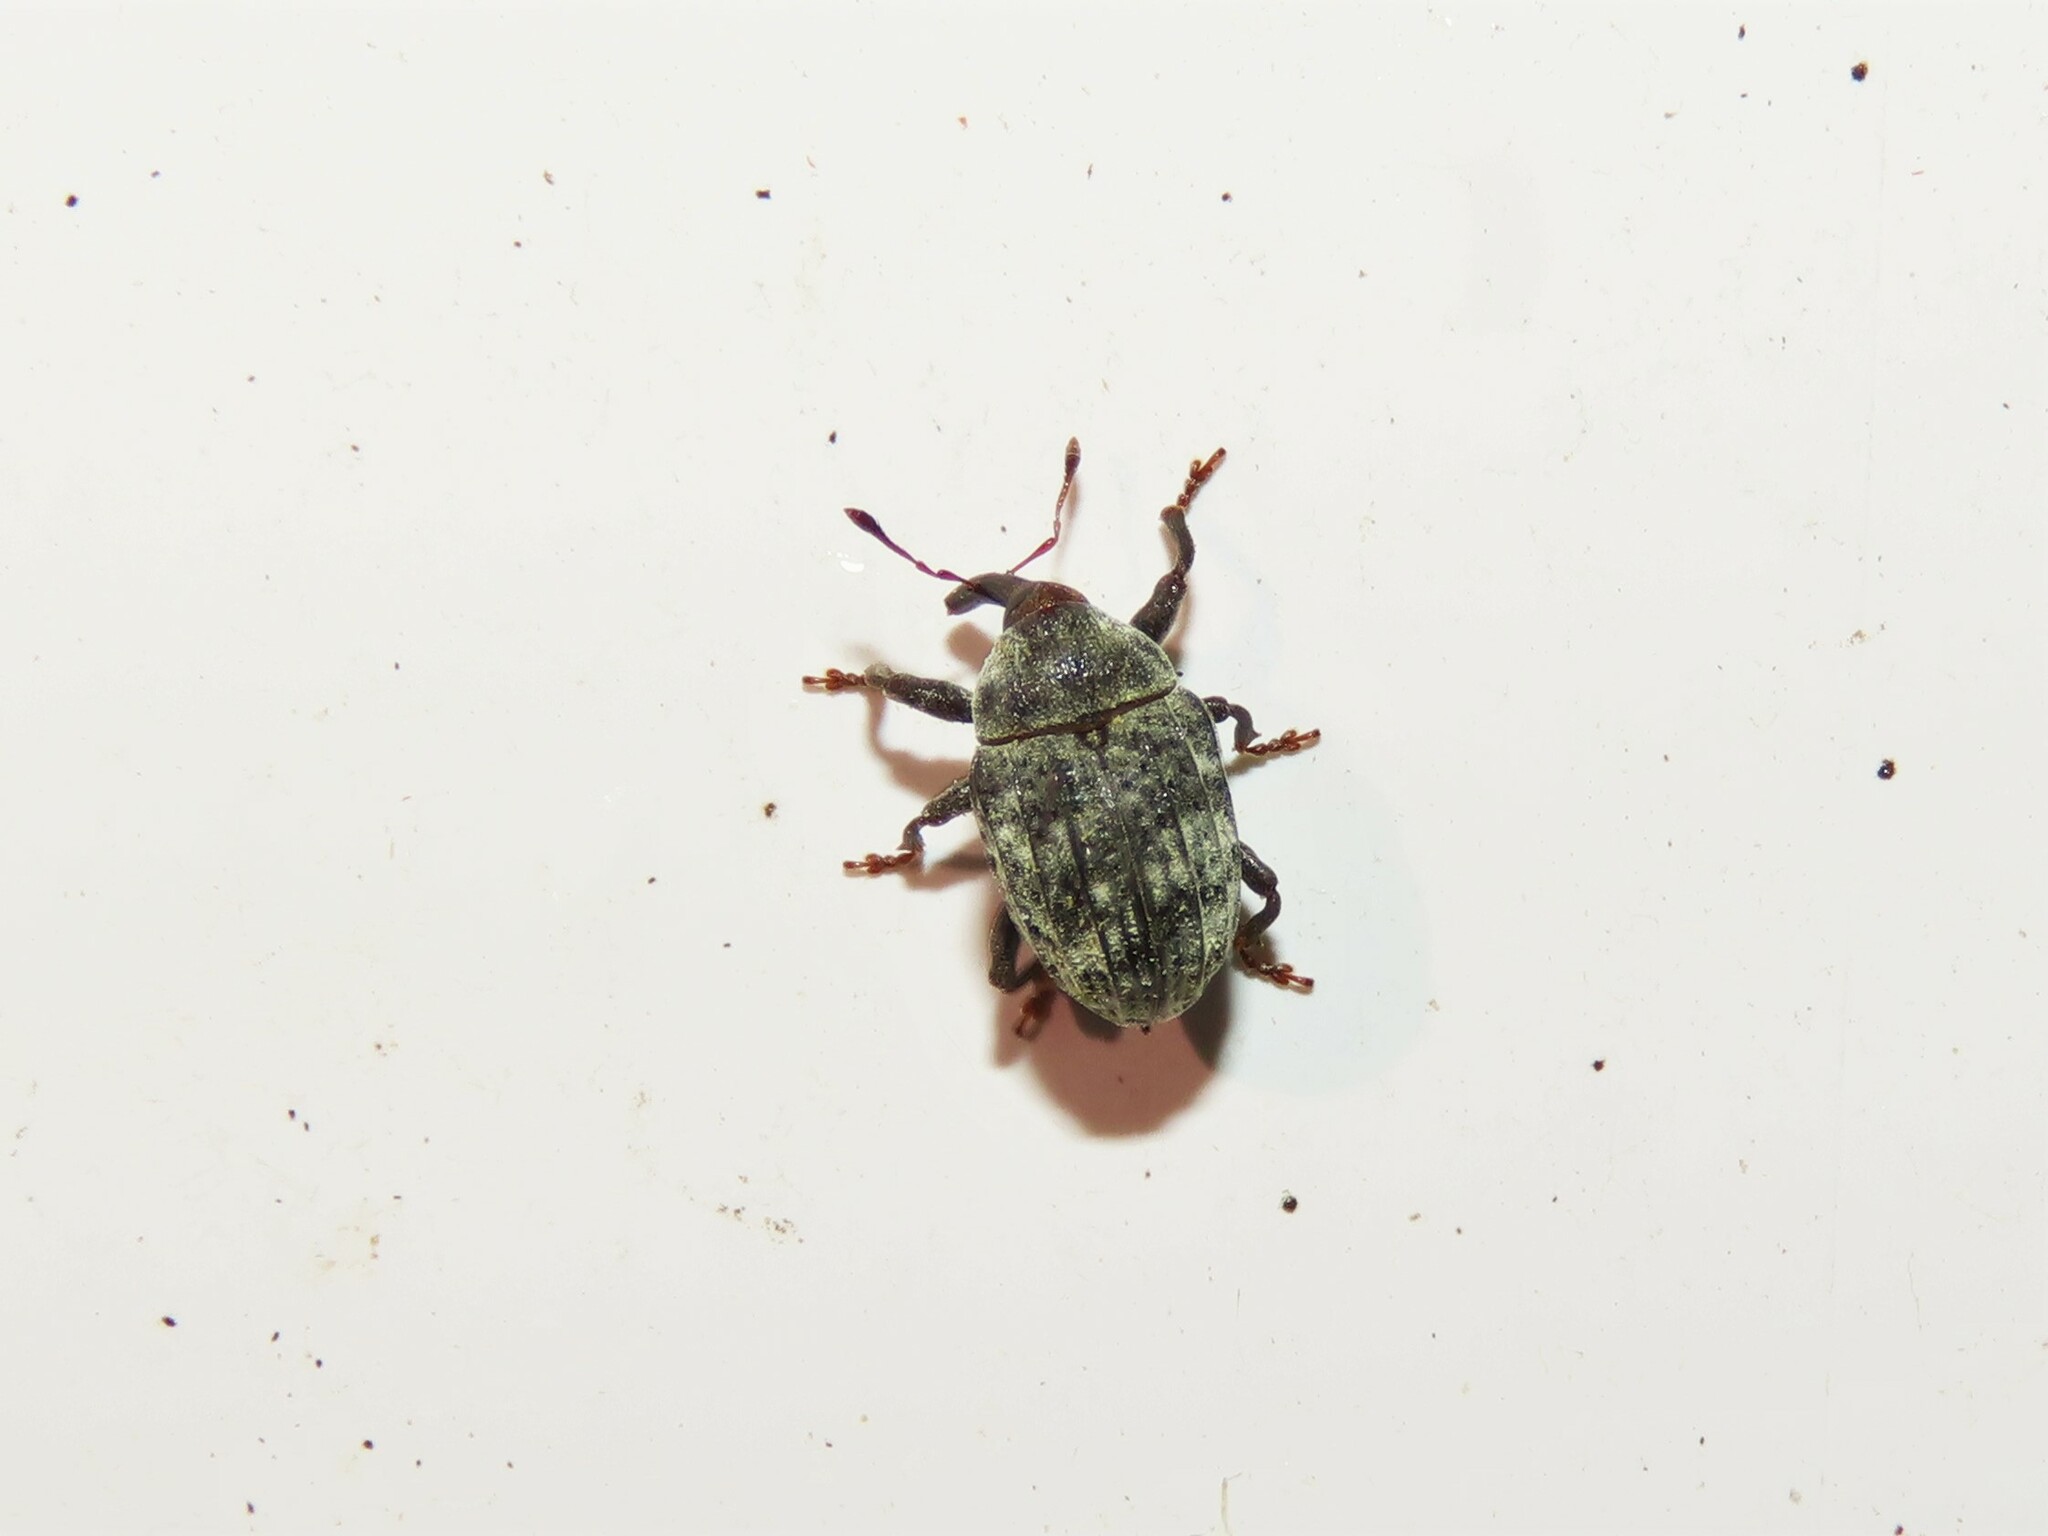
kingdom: Animalia
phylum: Arthropoda
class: Insecta
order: Coleoptera
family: Curculionidae
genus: Rhyssomatus
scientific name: Rhyssomatus lineaticollis
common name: Milkweed stem weevil
